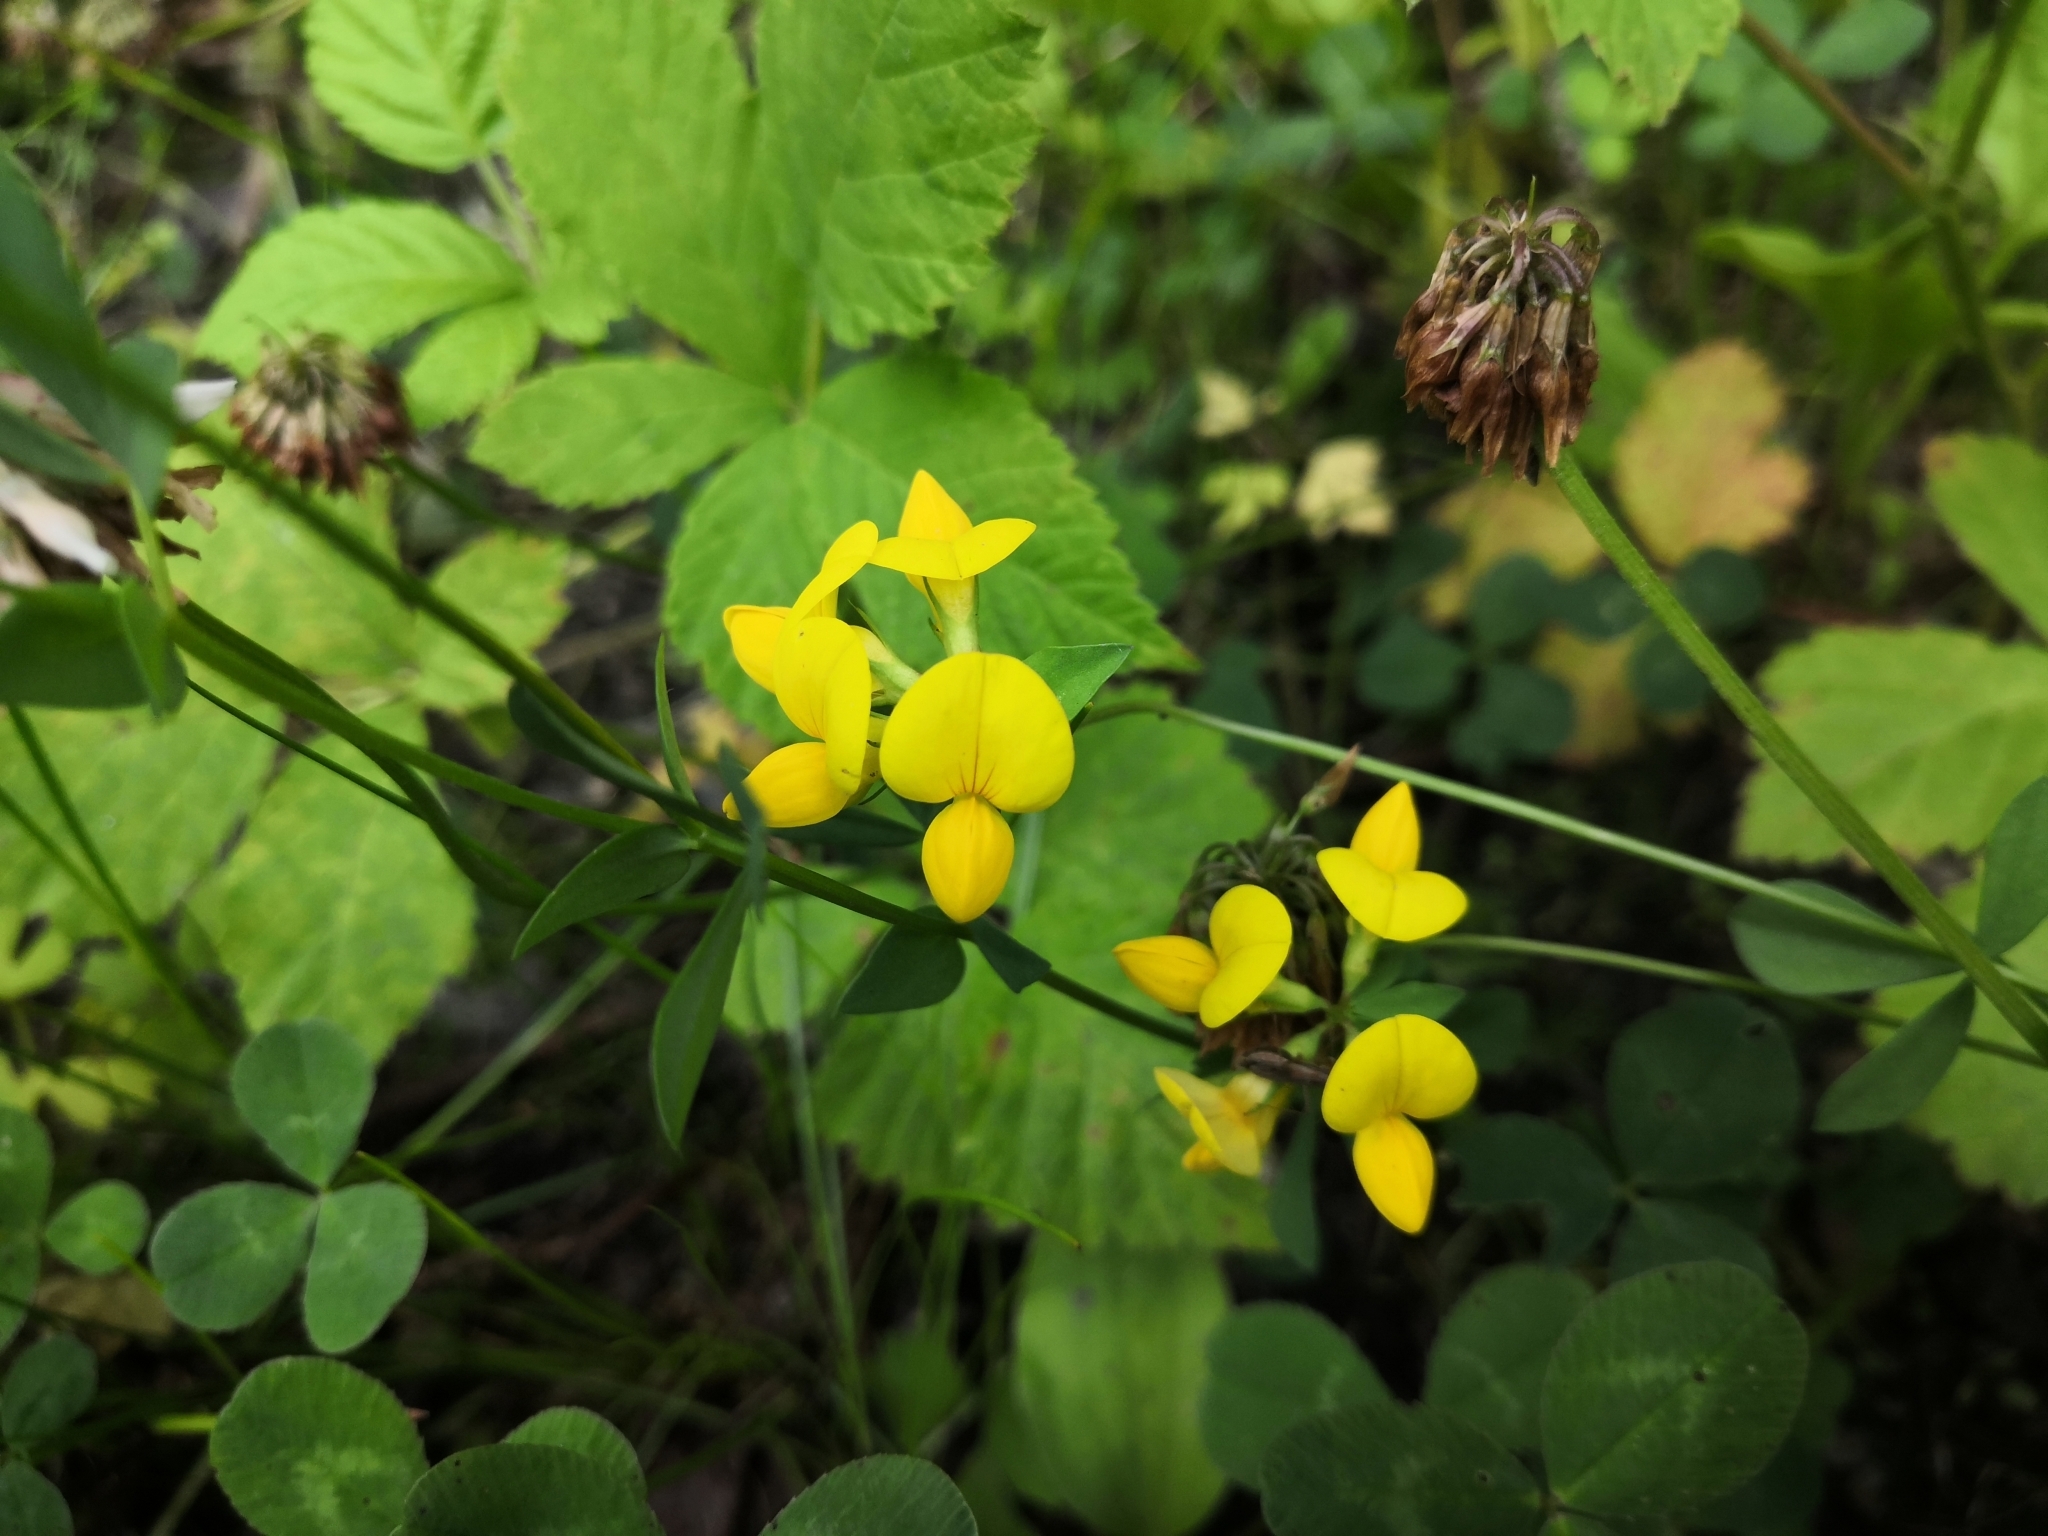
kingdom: Plantae
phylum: Tracheophyta
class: Magnoliopsida
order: Fabales
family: Fabaceae
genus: Lotus
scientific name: Lotus corniculatus
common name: Common bird's-foot-trefoil
